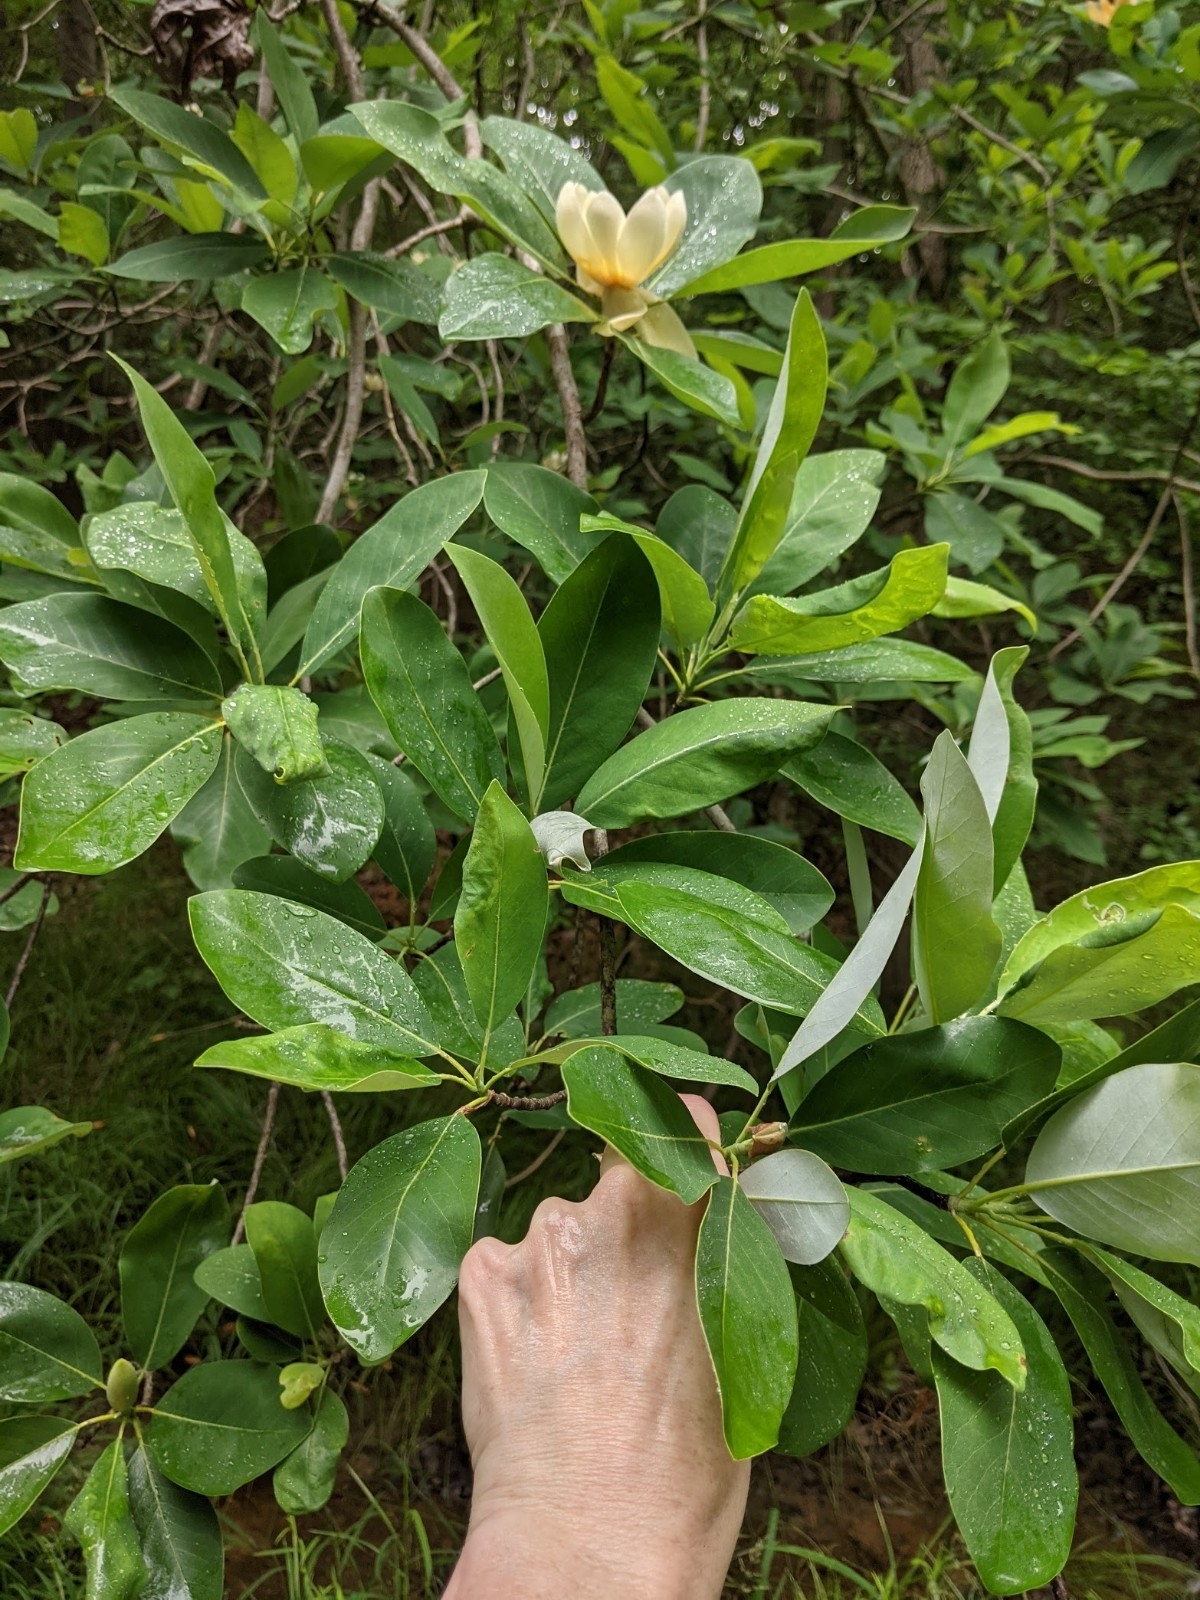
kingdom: Plantae
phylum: Tracheophyta
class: Magnoliopsida
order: Magnoliales
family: Magnoliaceae
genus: Magnolia
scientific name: Magnolia virginiana
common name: Swamp bay
